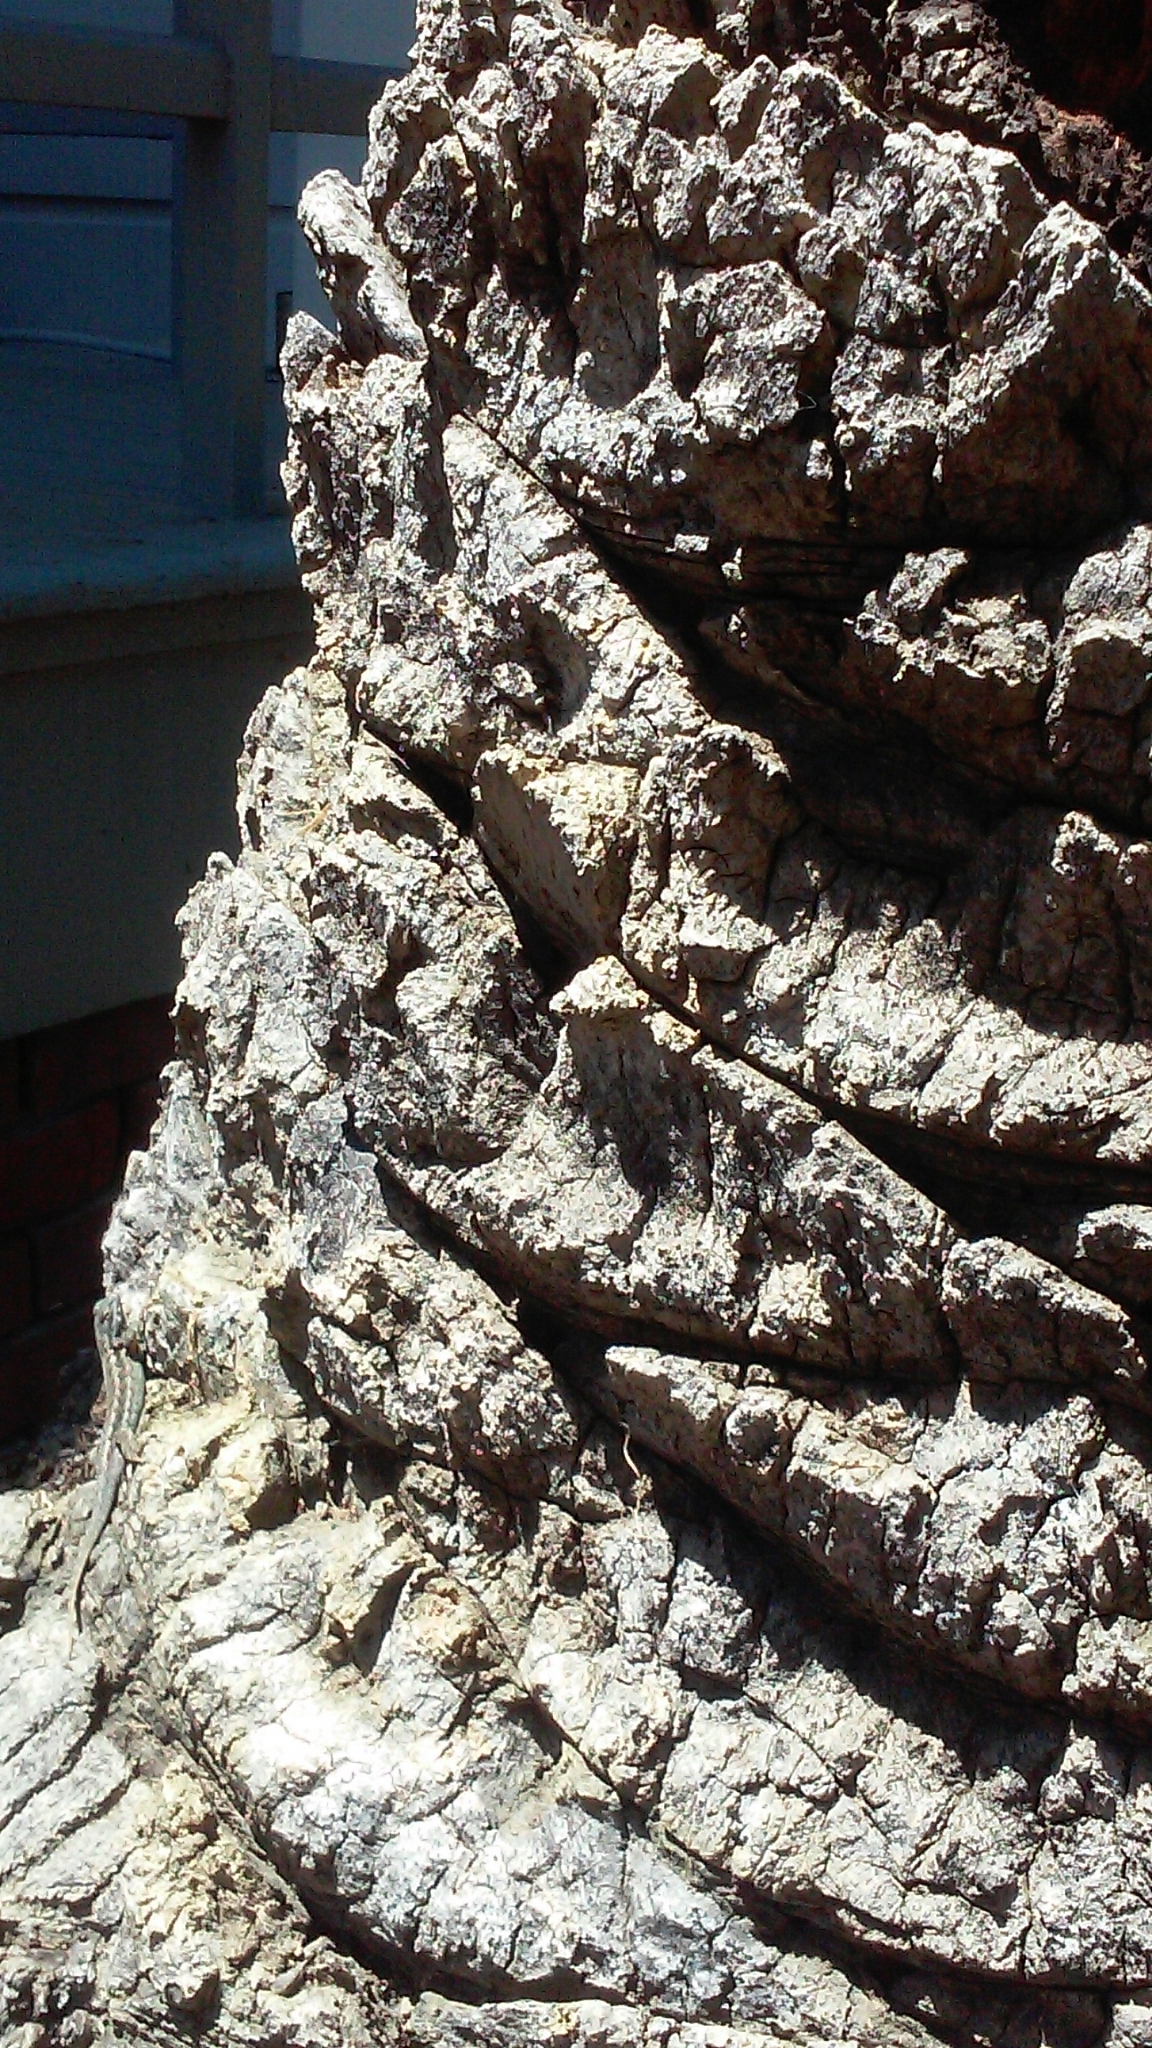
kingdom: Animalia
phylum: Chordata
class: Squamata
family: Phrynosomatidae
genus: Sceloporus
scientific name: Sceloporus occidentalis
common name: Western fence lizard
